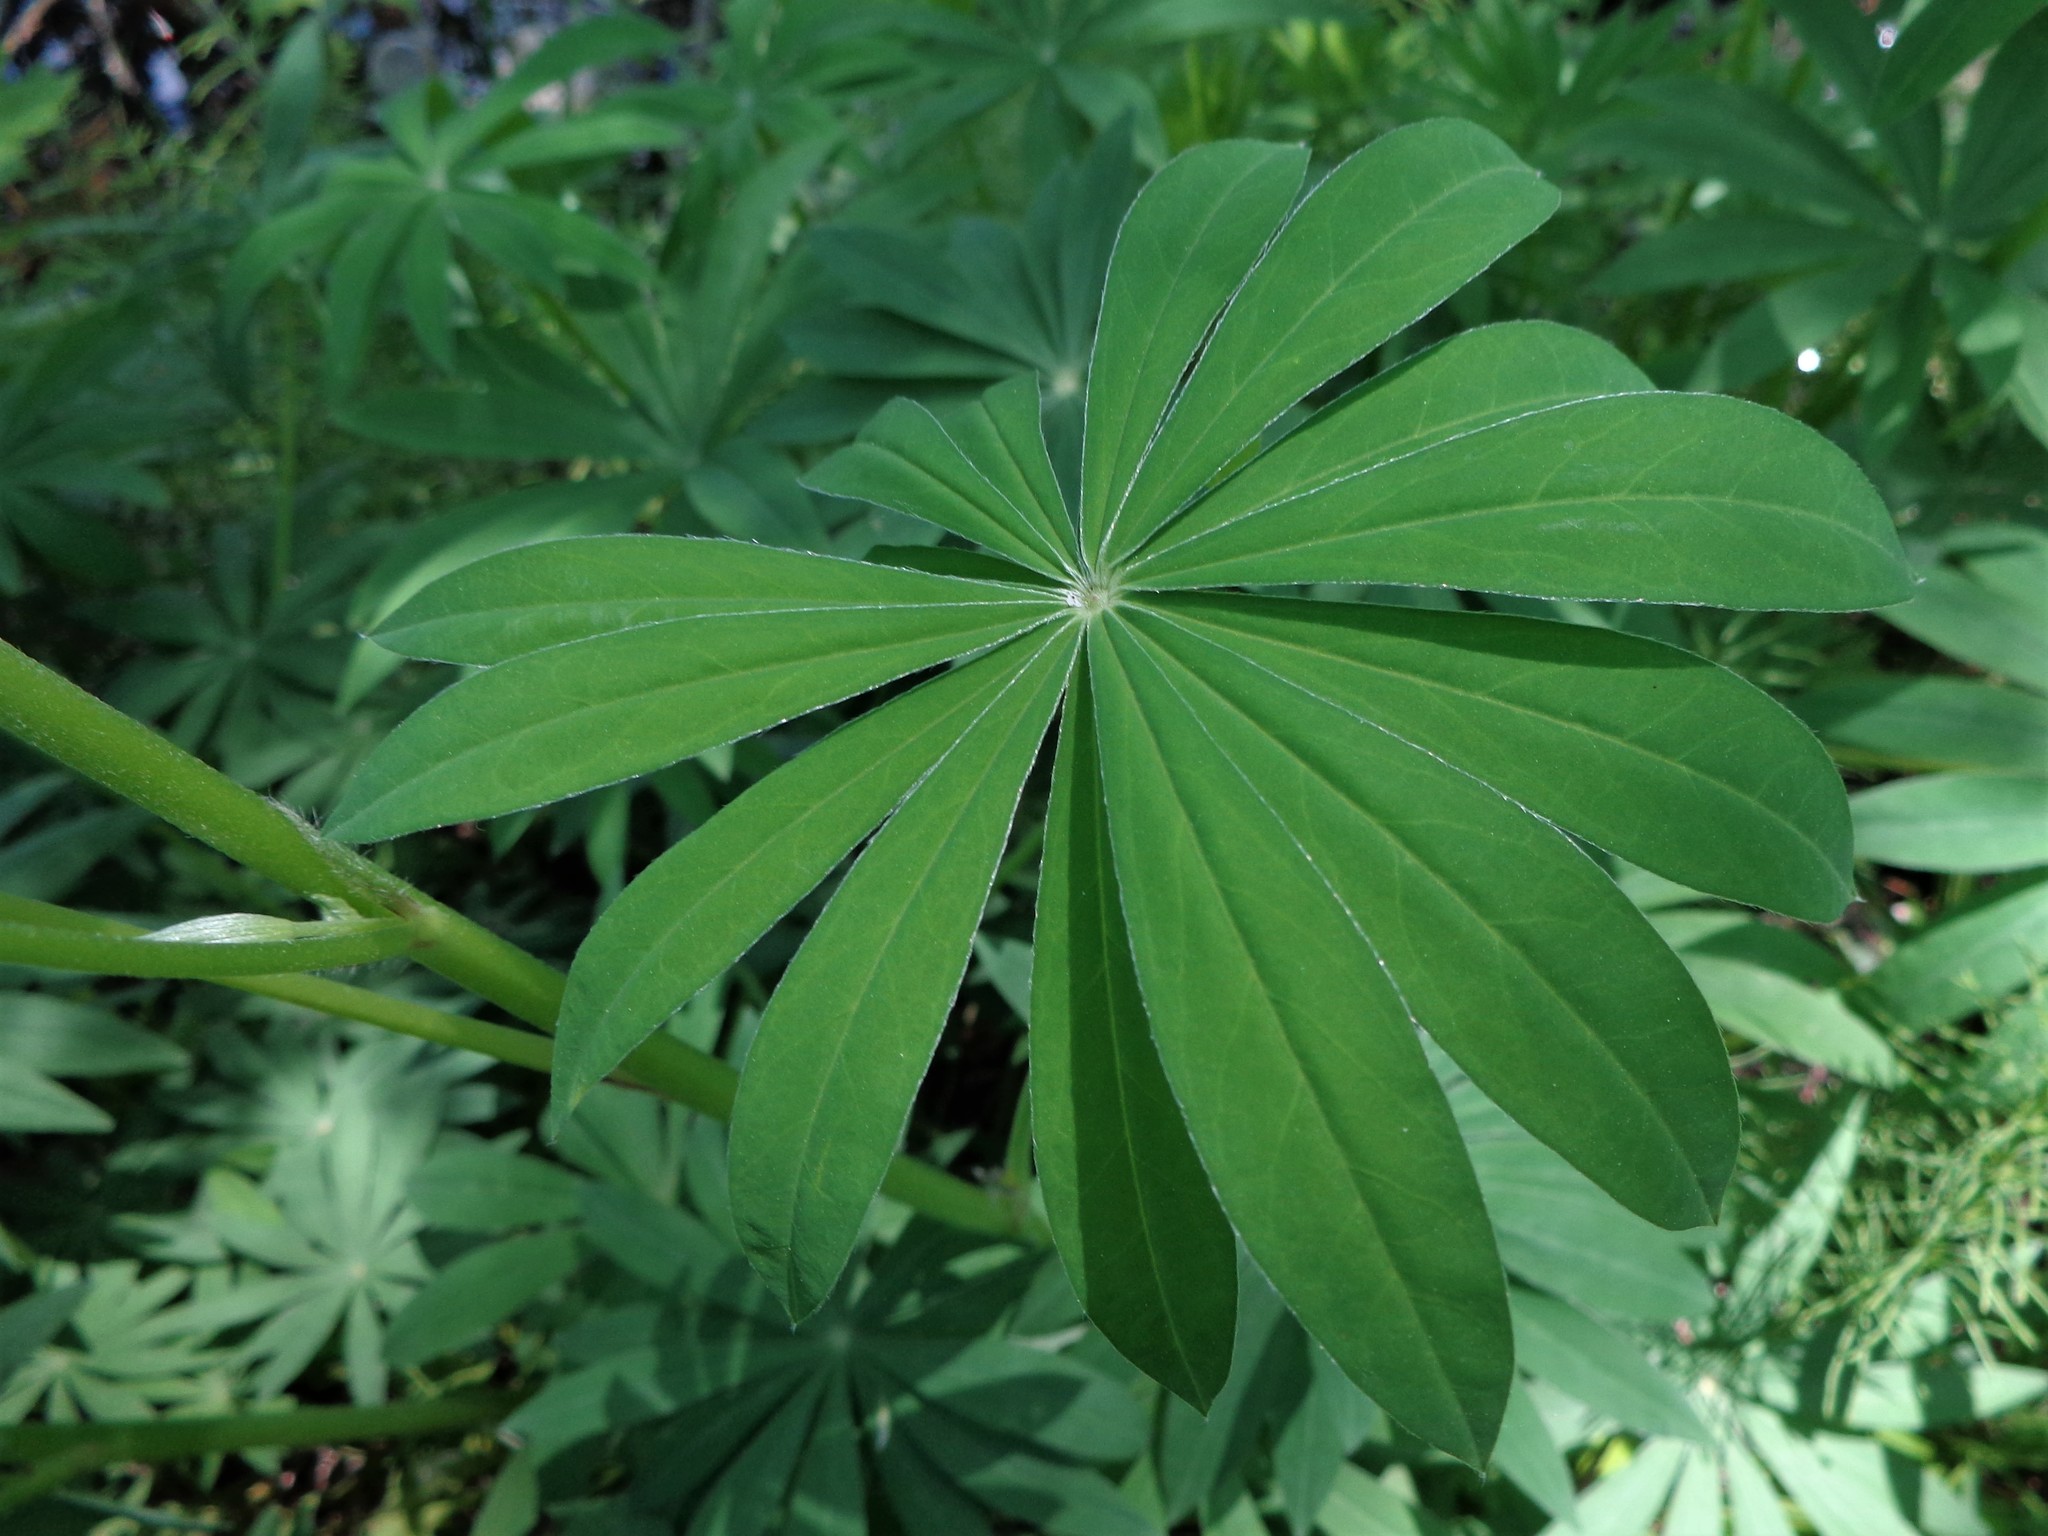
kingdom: Plantae
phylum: Tracheophyta
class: Magnoliopsida
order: Fabales
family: Fabaceae
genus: Lupinus
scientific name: Lupinus polyphyllus
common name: Garden lupin
